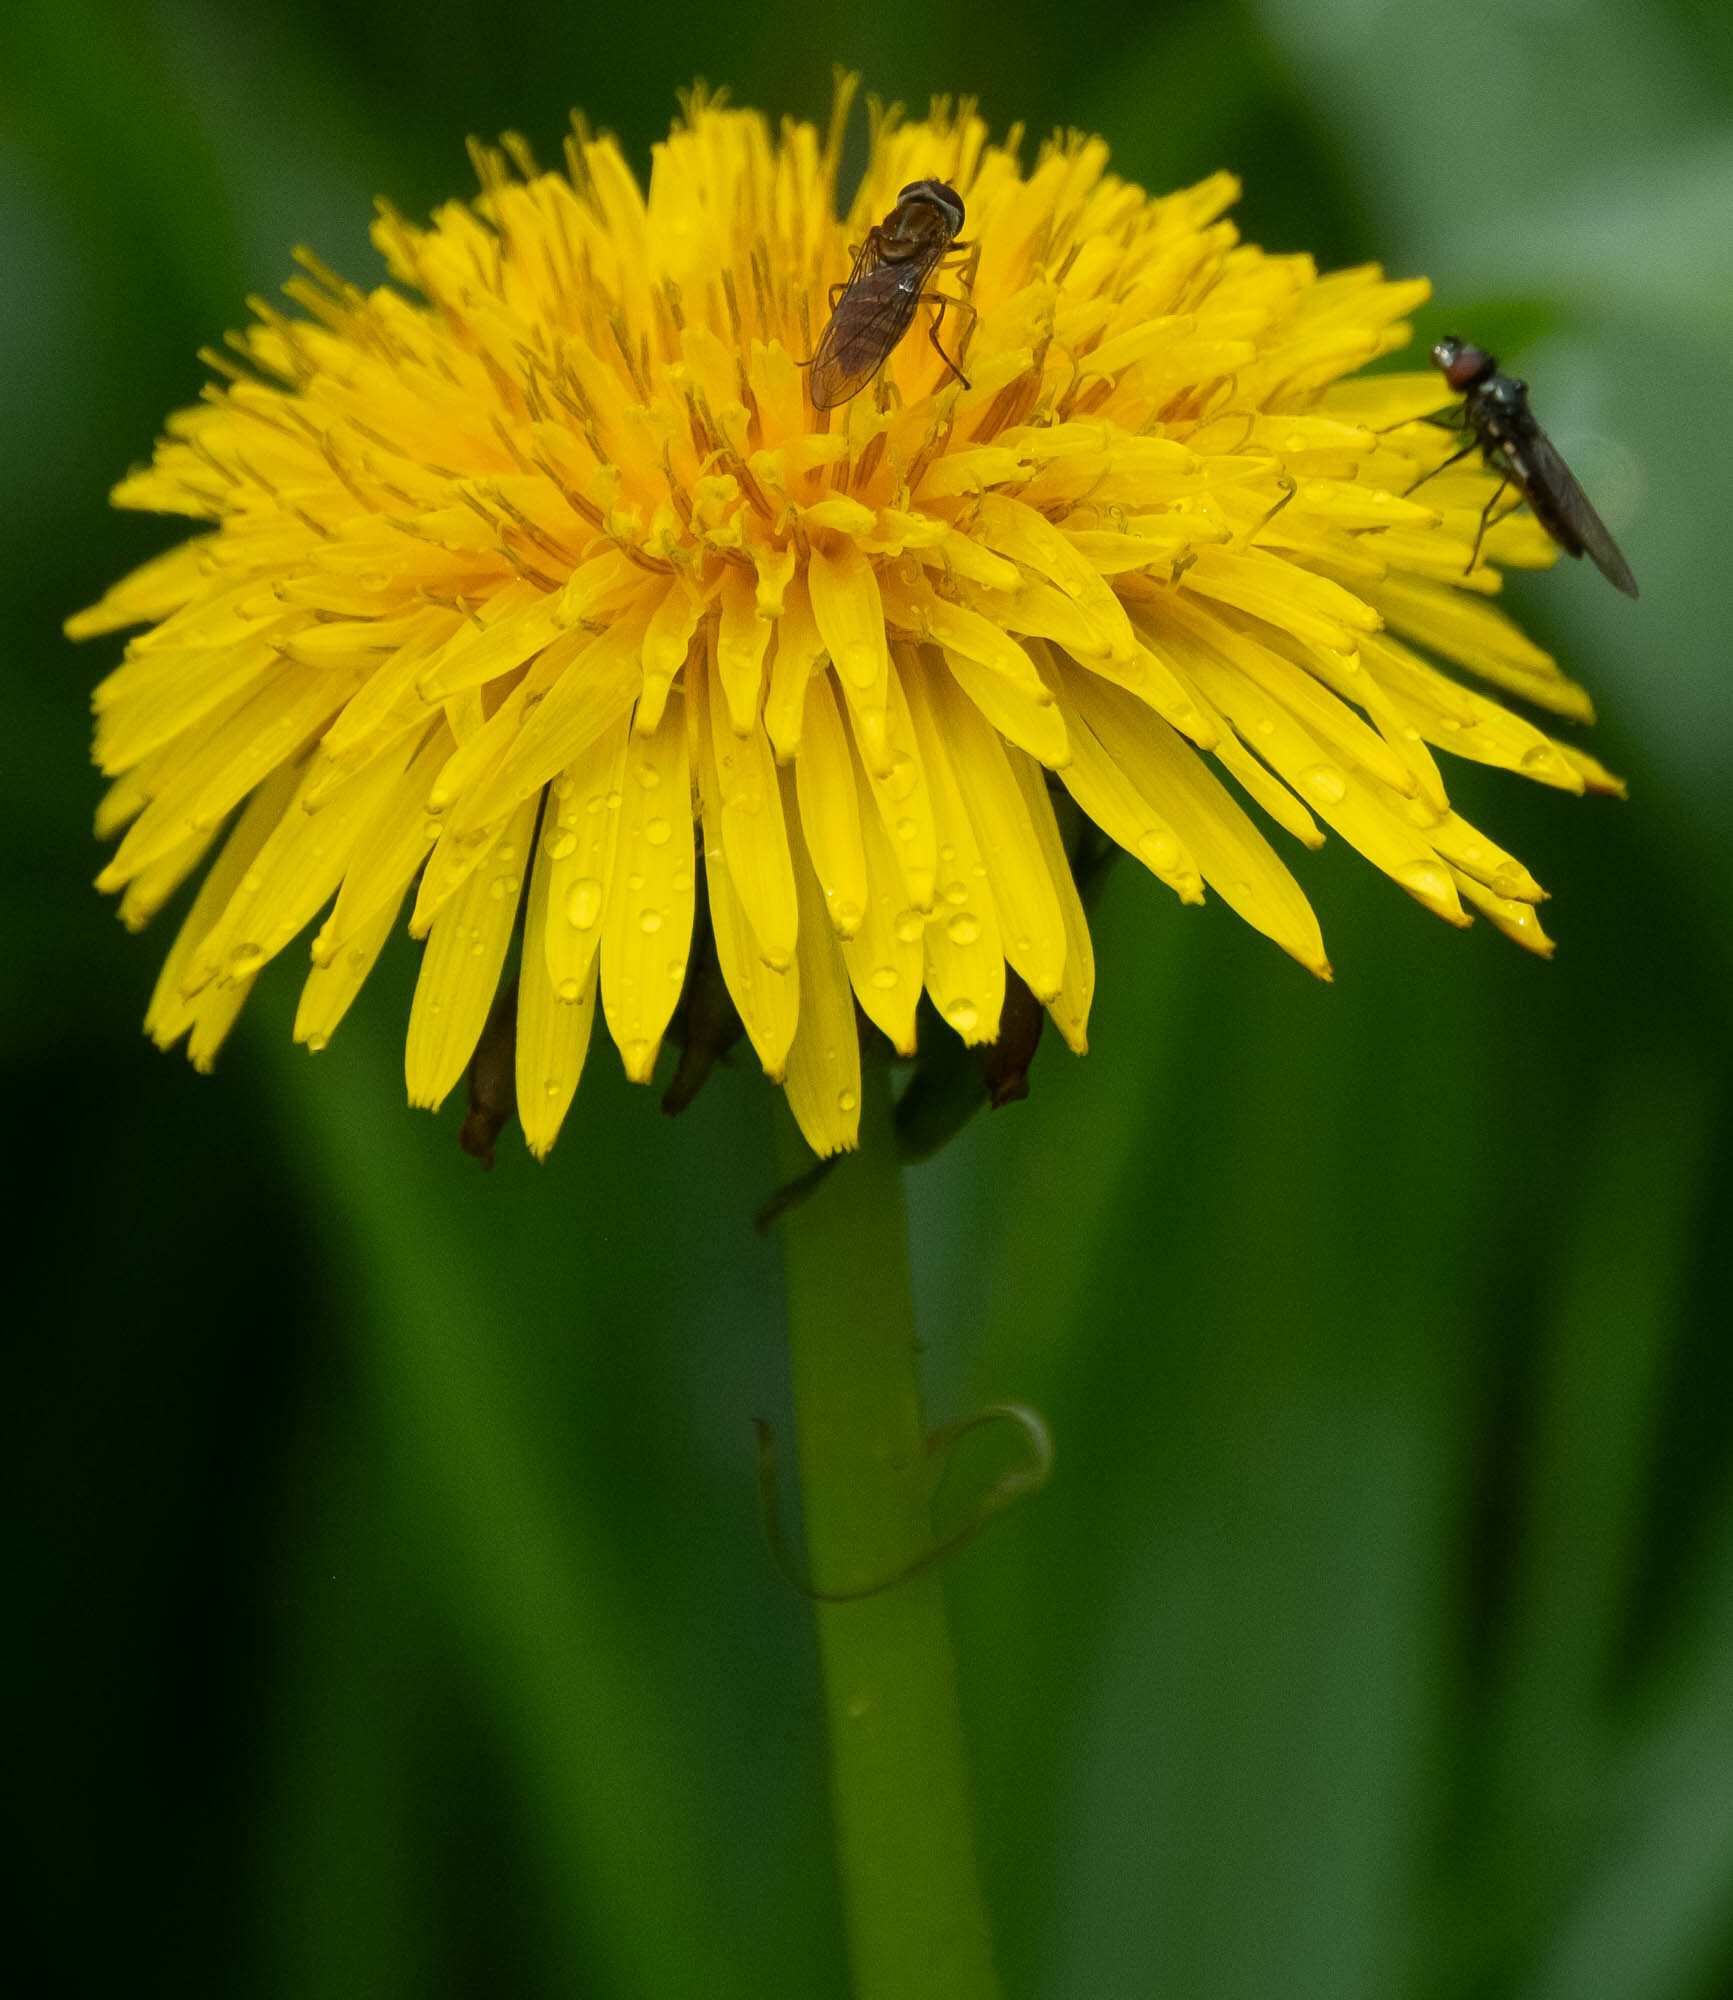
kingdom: Plantae
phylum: Tracheophyta
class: Magnoliopsida
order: Asterales
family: Asteraceae
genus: Taraxacum
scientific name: Taraxacum officinale
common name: Common dandelion
